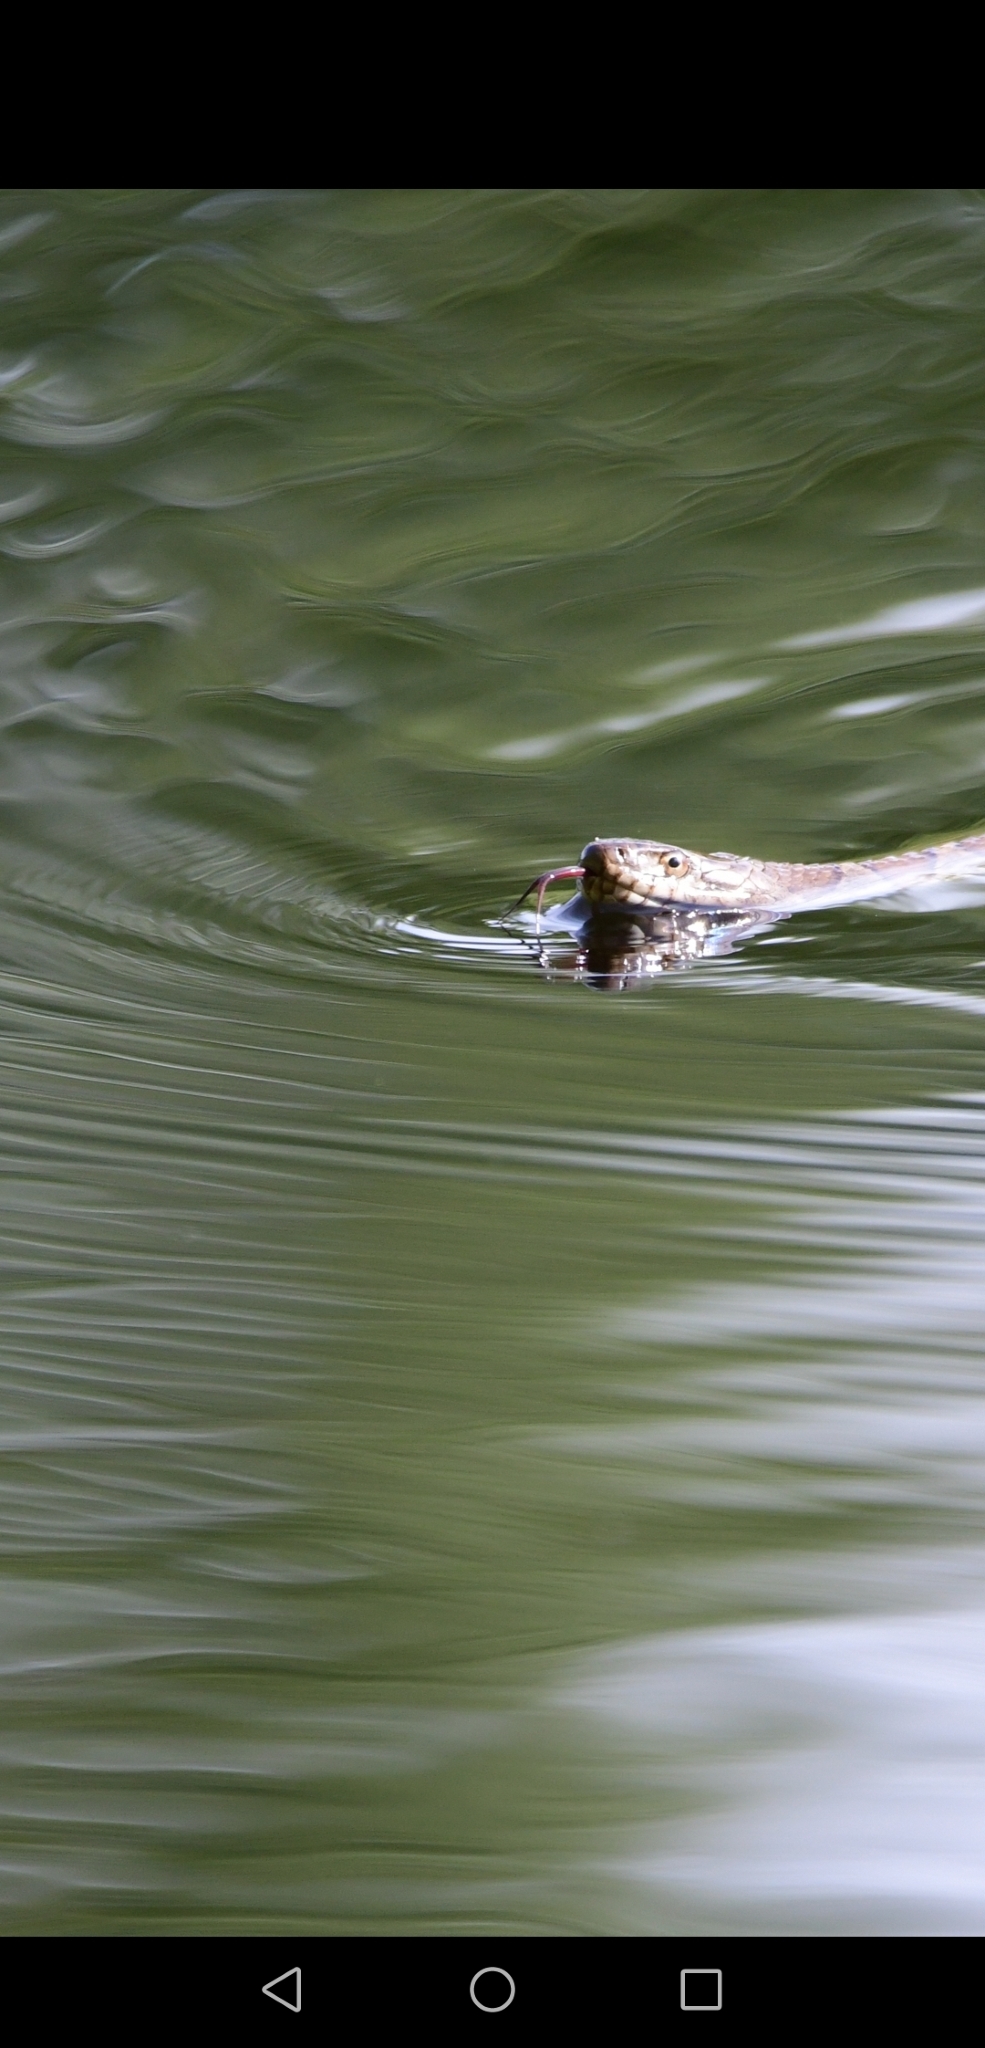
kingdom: Animalia
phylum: Chordata
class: Squamata
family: Colubridae
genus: Nerodia
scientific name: Nerodia sipedon
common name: Northern water snake
